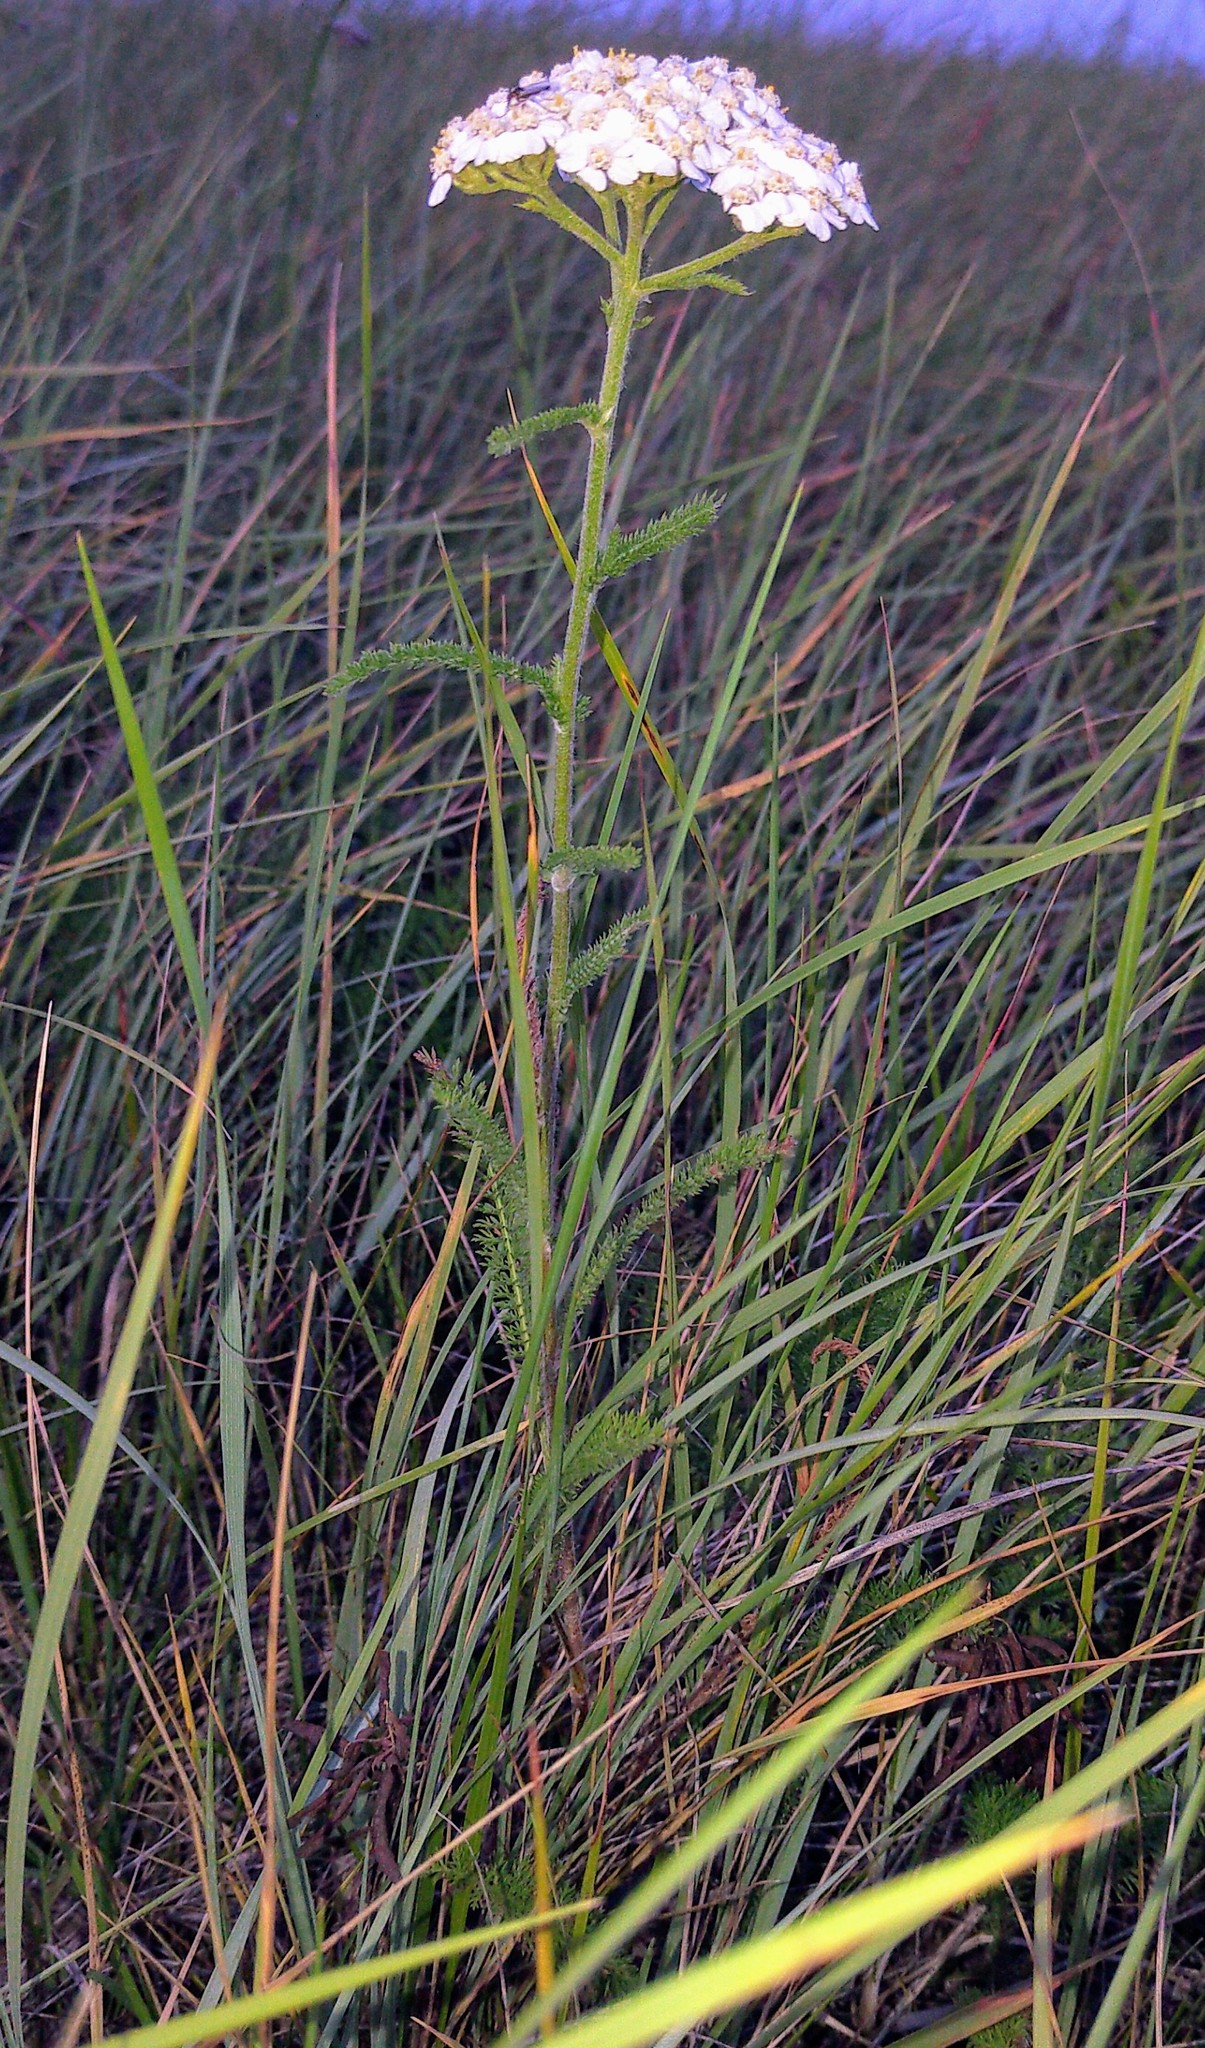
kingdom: Plantae
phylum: Tracheophyta
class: Magnoliopsida
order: Asterales
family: Asteraceae
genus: Achillea
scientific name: Achillea millefolium
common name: Yarrow
